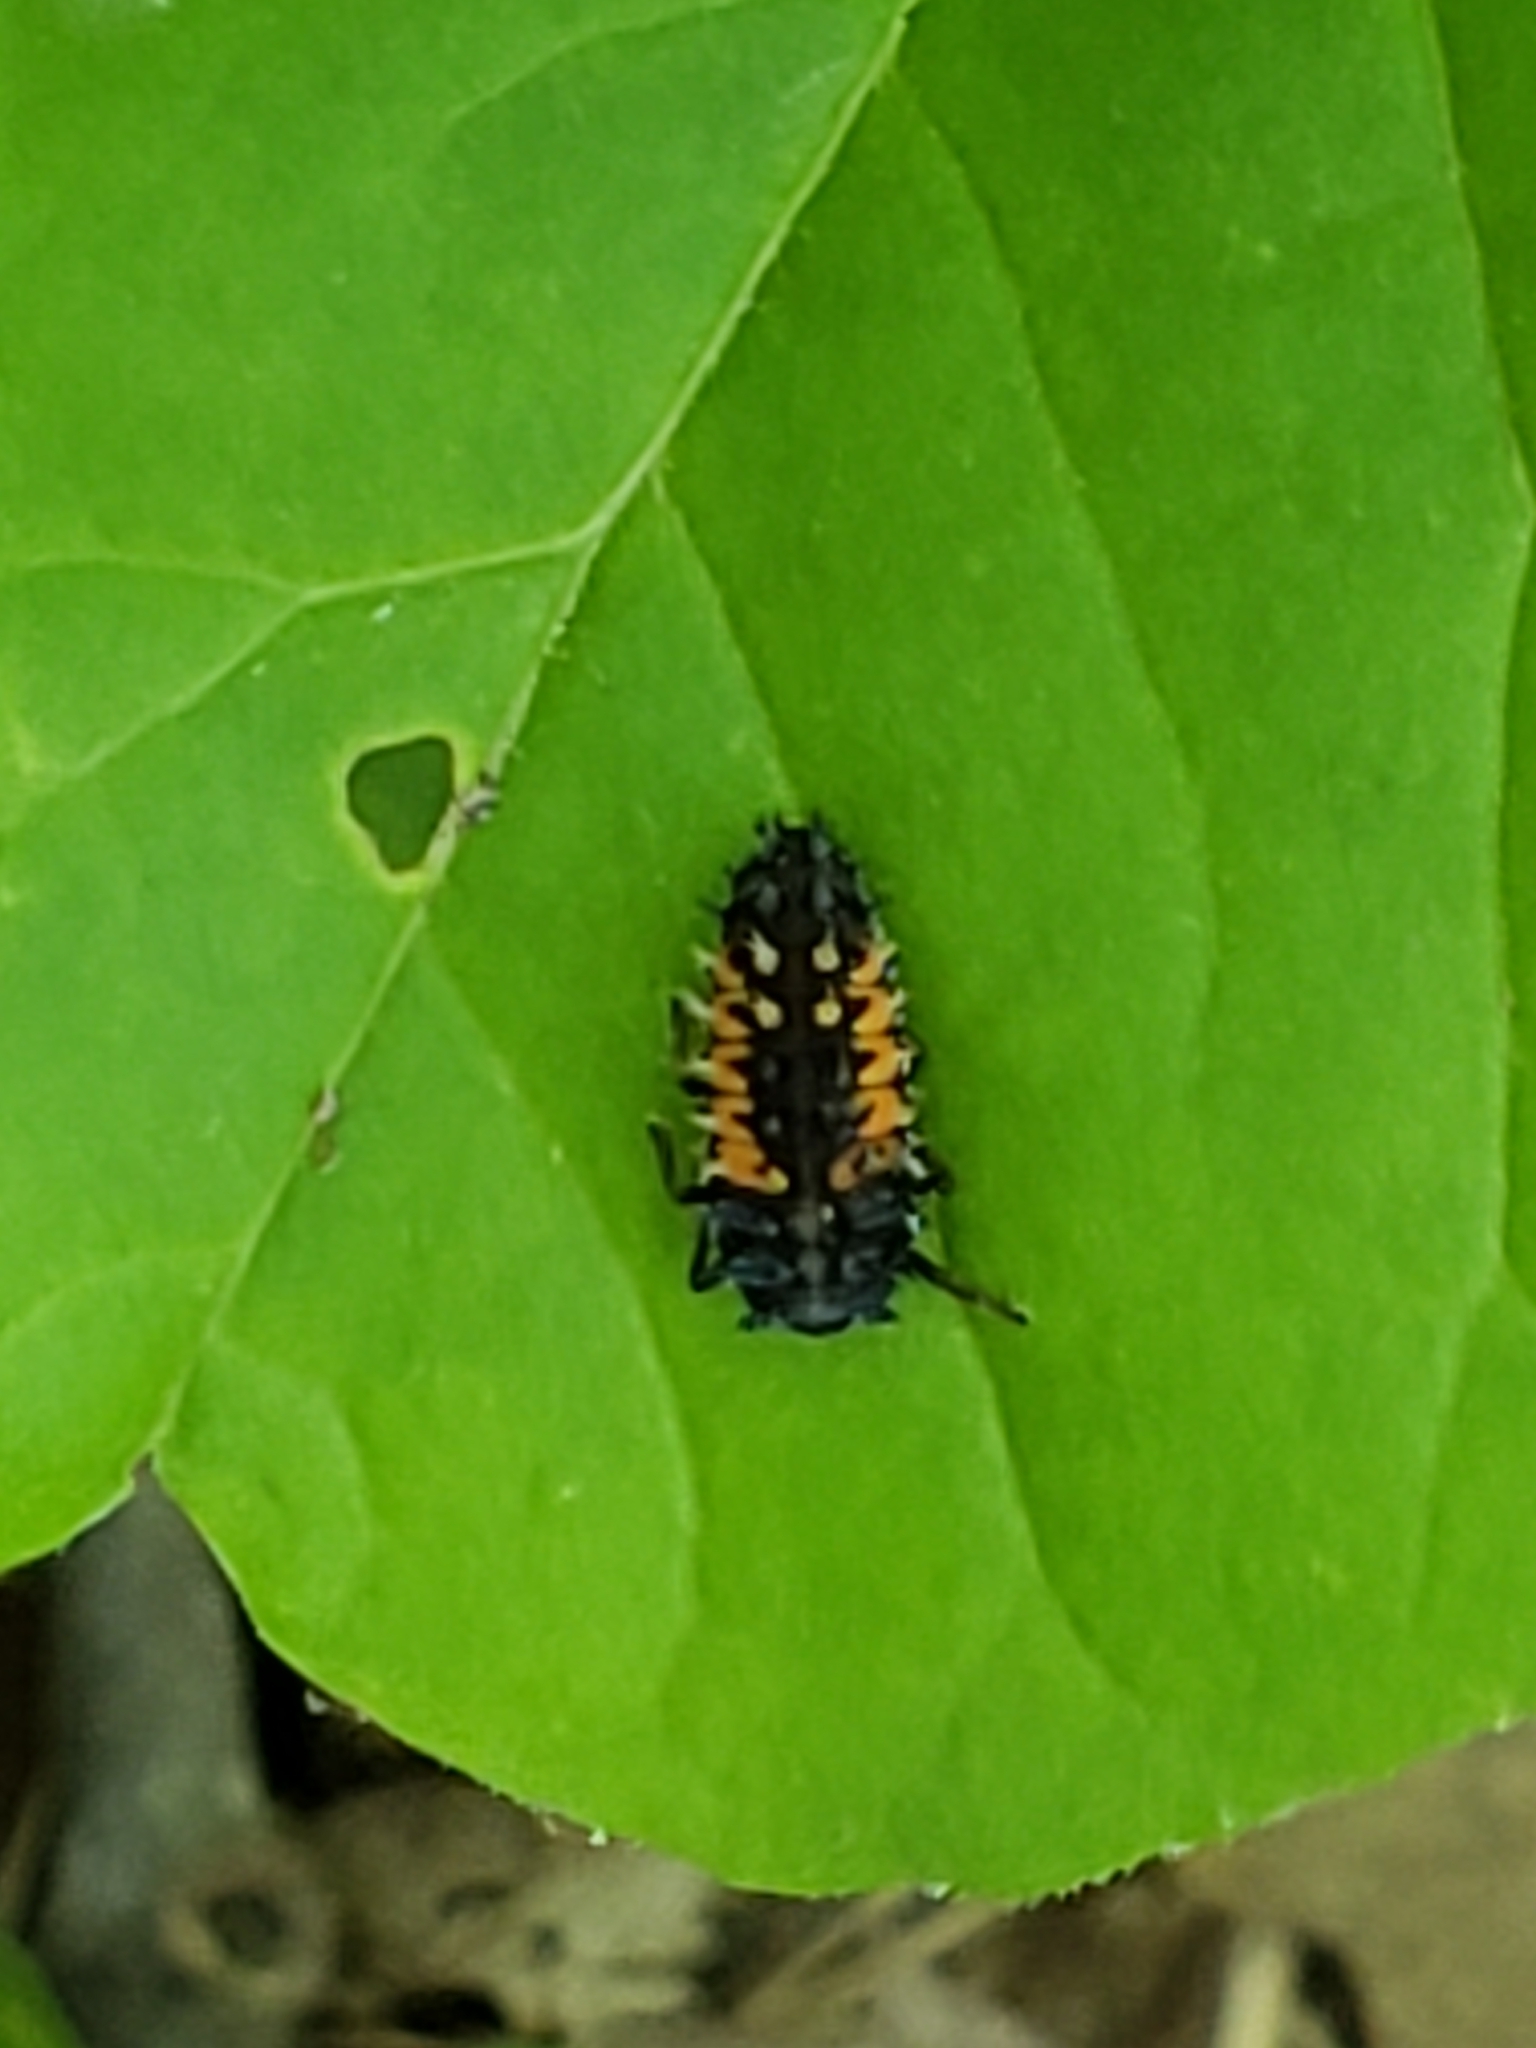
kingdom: Animalia
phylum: Arthropoda
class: Insecta
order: Coleoptera
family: Coccinellidae
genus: Harmonia
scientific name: Harmonia axyridis
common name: Harlequin ladybird
